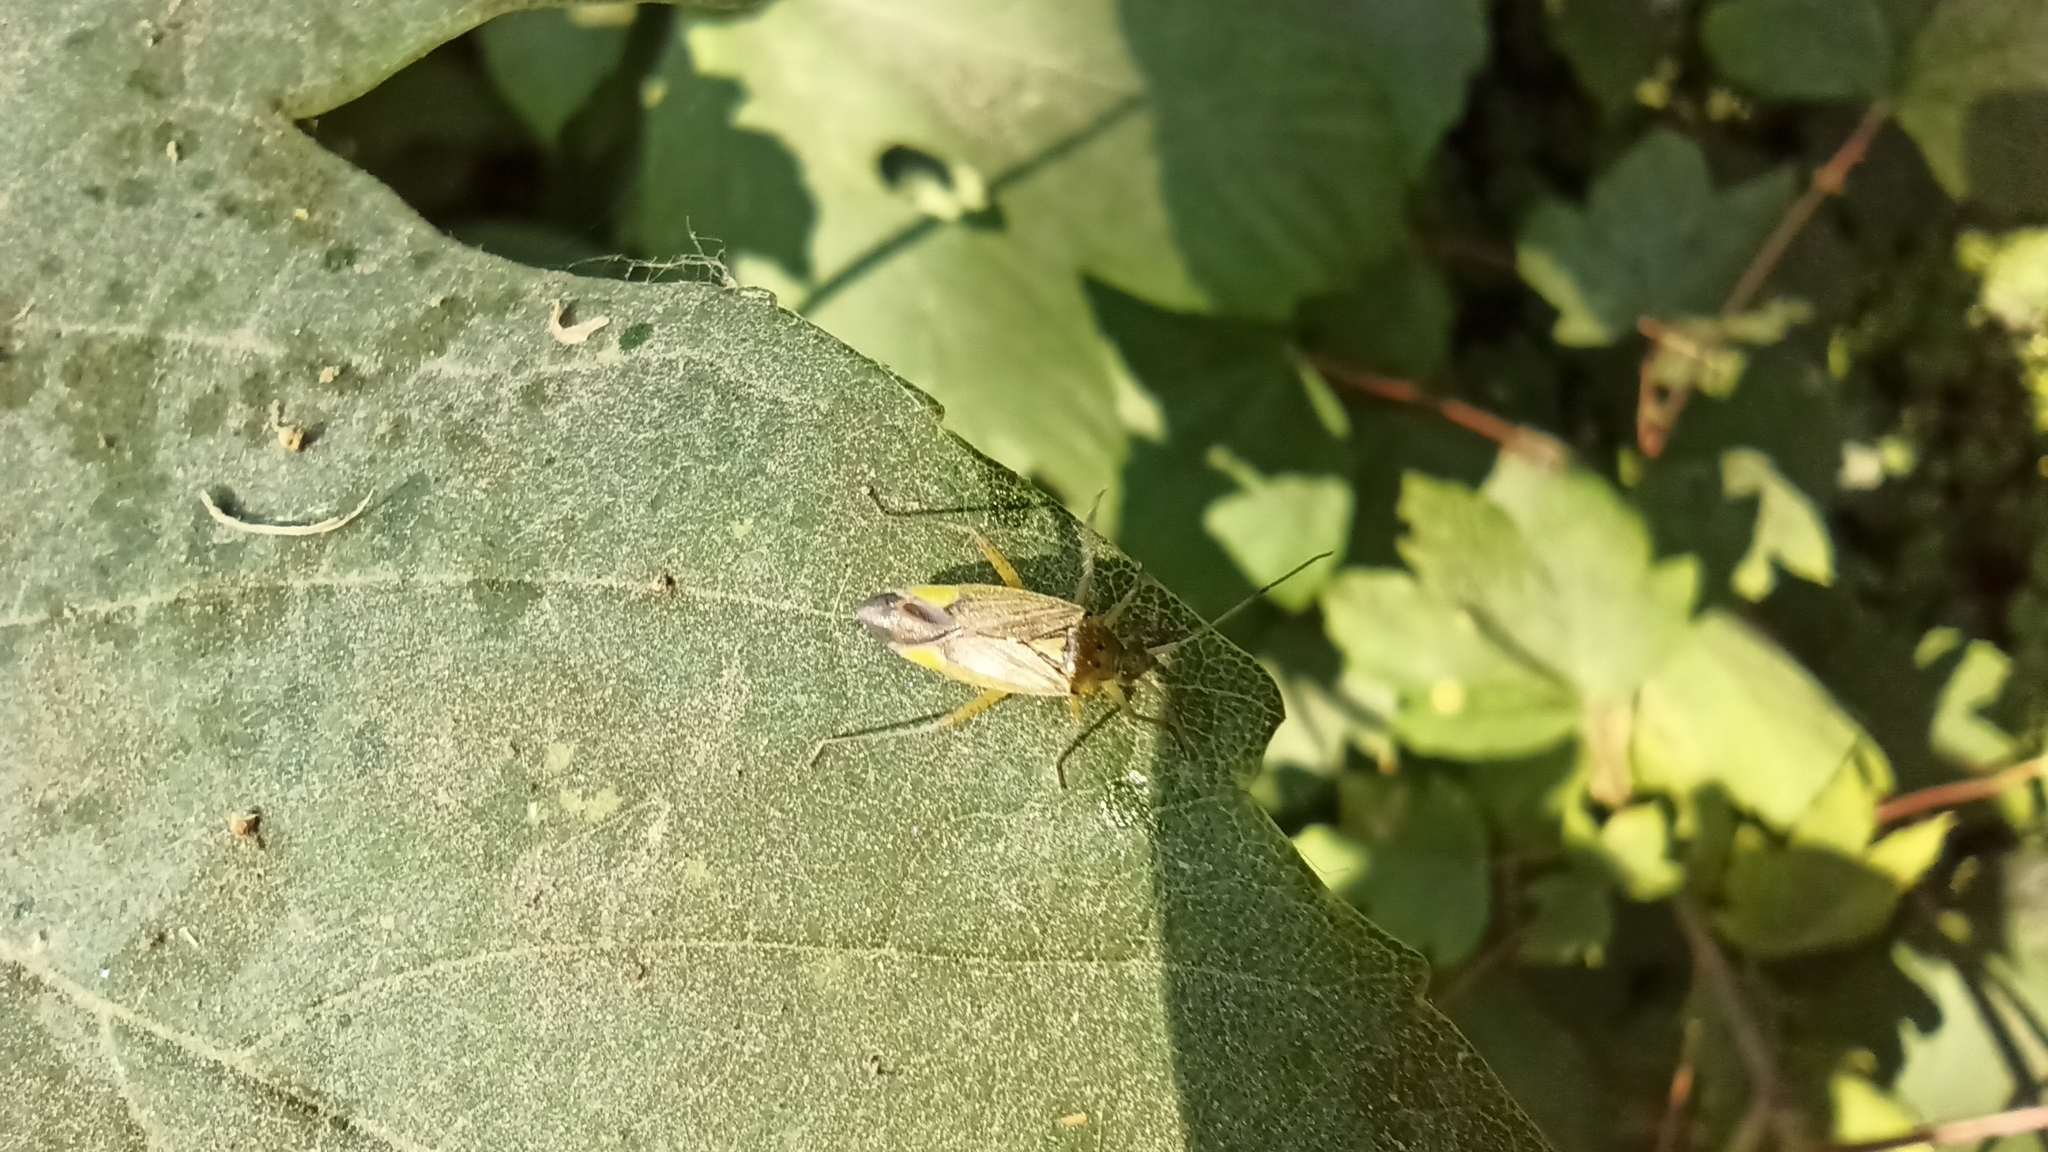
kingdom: Animalia
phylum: Arthropoda
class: Insecta
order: Hemiptera
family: Miridae
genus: Closterotomus
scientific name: Closterotomus trivialis
